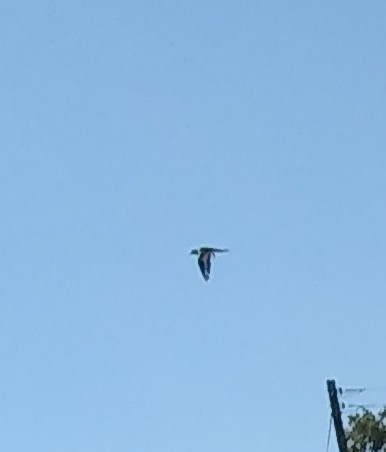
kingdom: Animalia
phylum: Chordata
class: Aves
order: Charadriiformes
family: Charadriidae
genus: Charadrius
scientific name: Charadrius vociferus
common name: Killdeer
